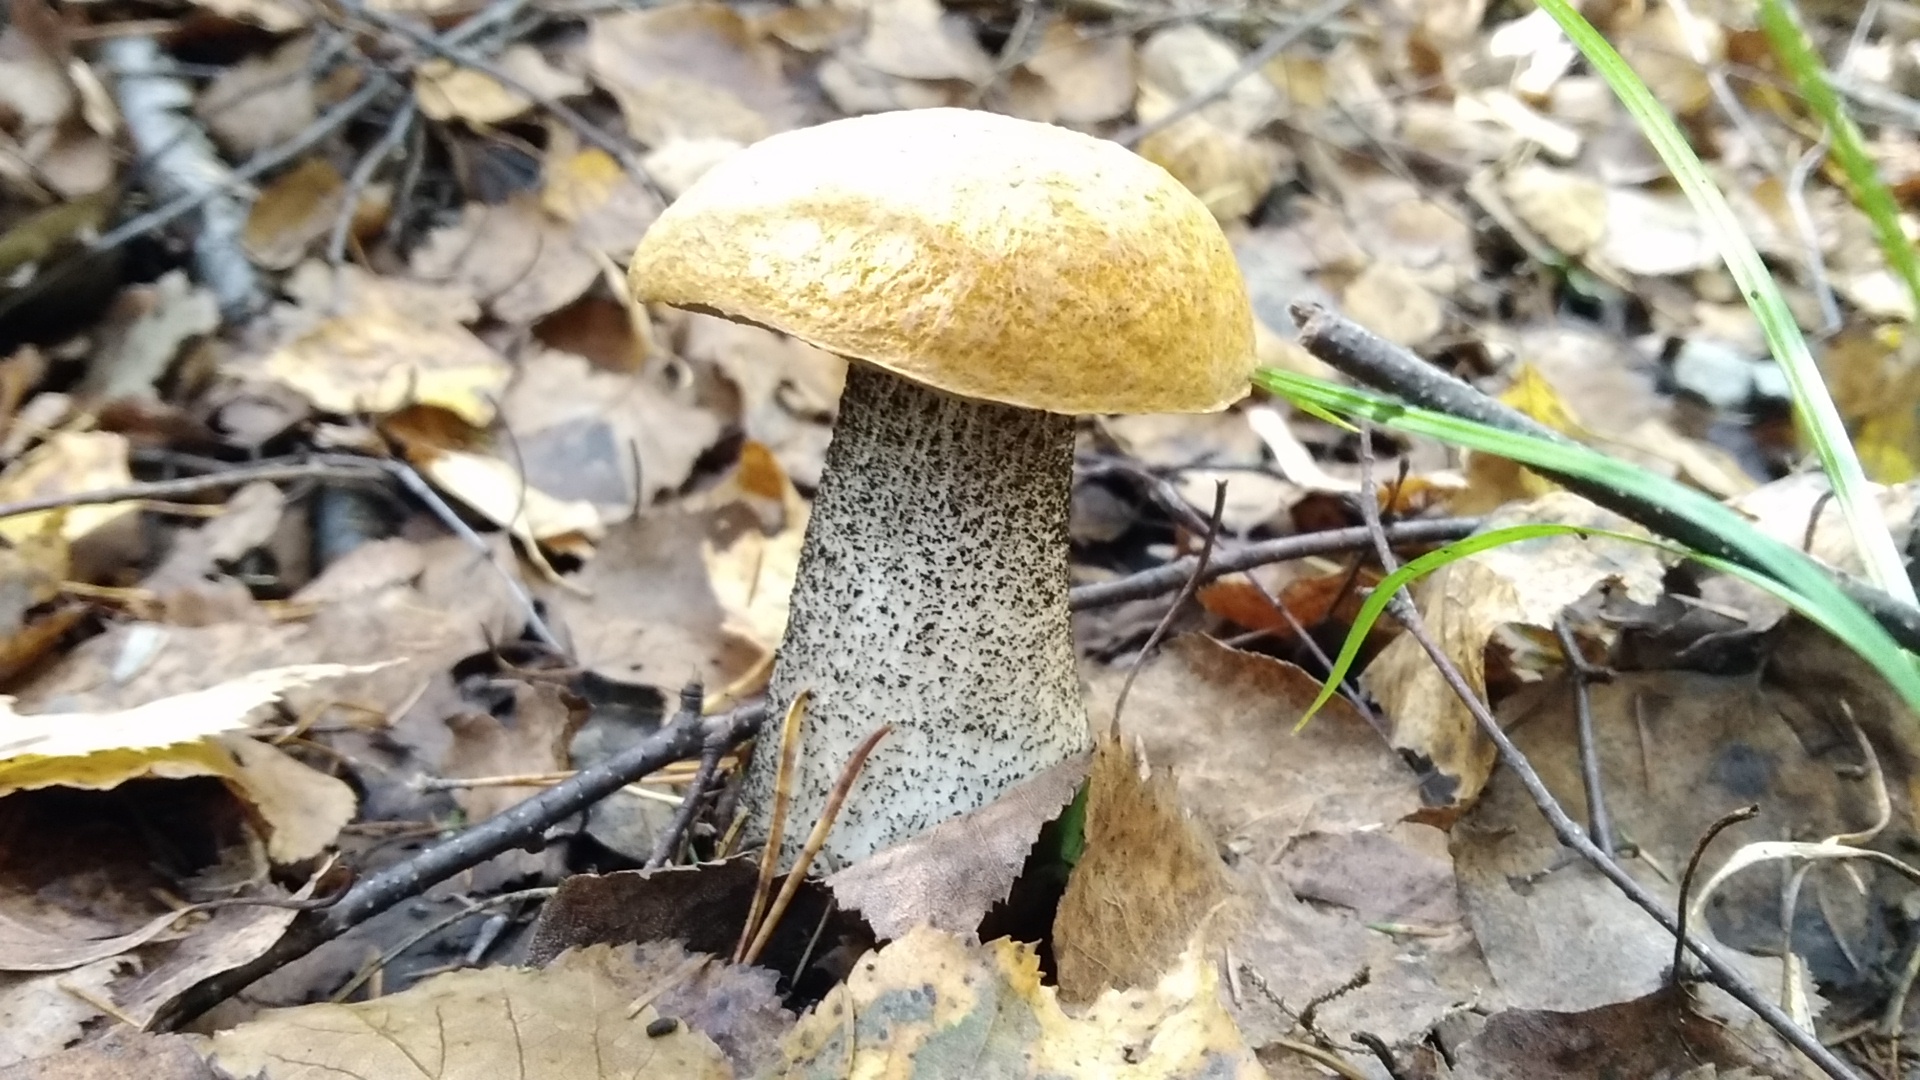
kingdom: Fungi
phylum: Basidiomycota
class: Agaricomycetes
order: Boletales
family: Boletaceae
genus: Leccinum
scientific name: Leccinum versipelle
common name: Orange birch bolete
